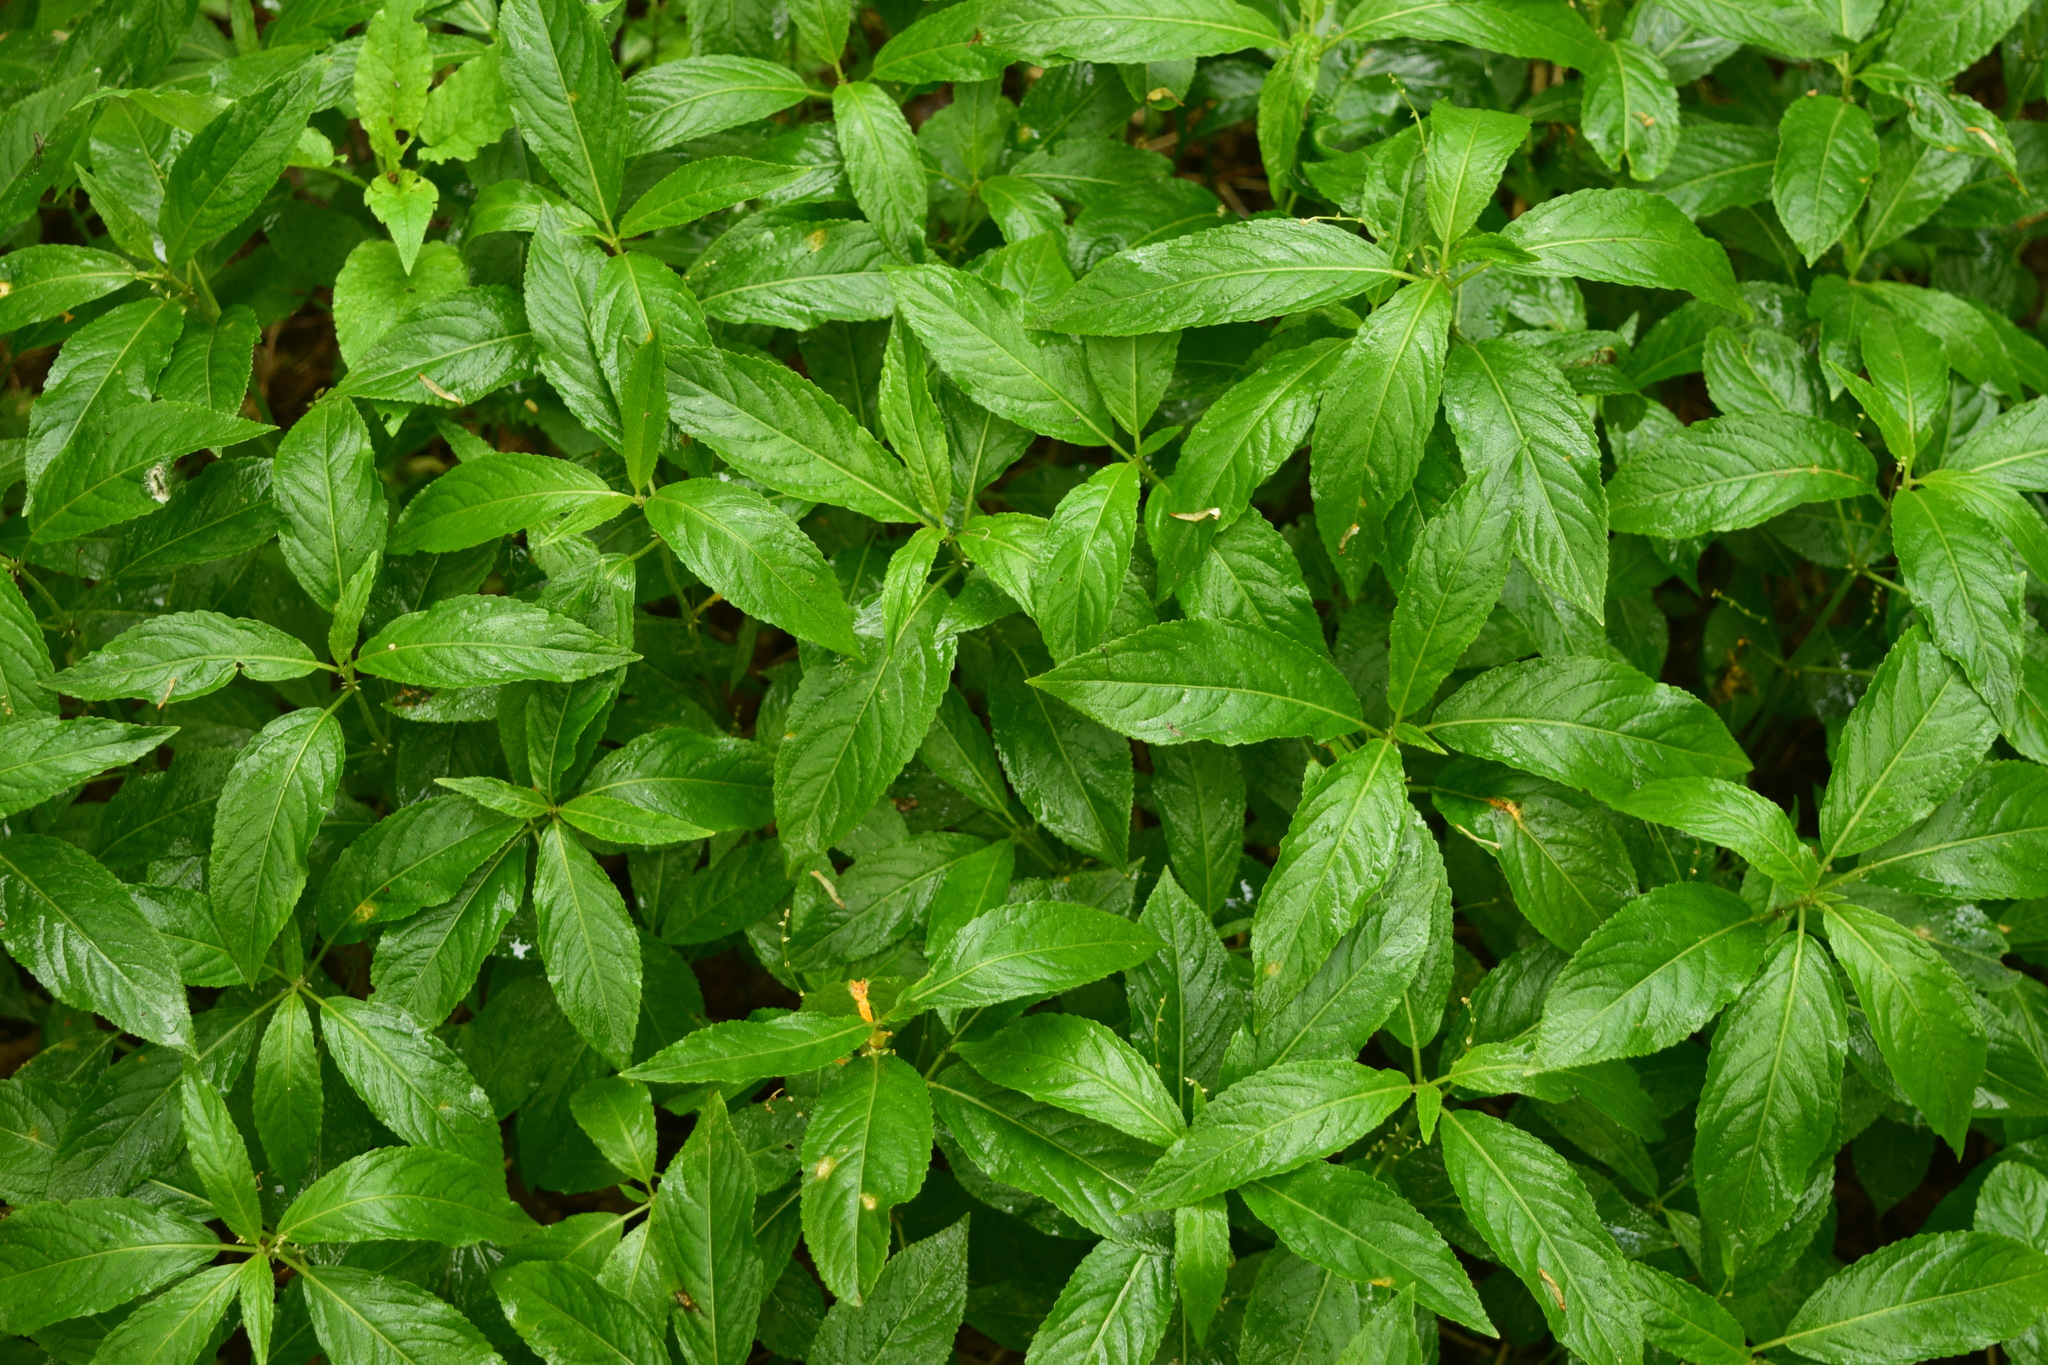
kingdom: Plantae
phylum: Tracheophyta
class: Magnoliopsida
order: Malpighiales
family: Euphorbiaceae
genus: Mercurialis
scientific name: Mercurialis perennis
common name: Dog mercury
